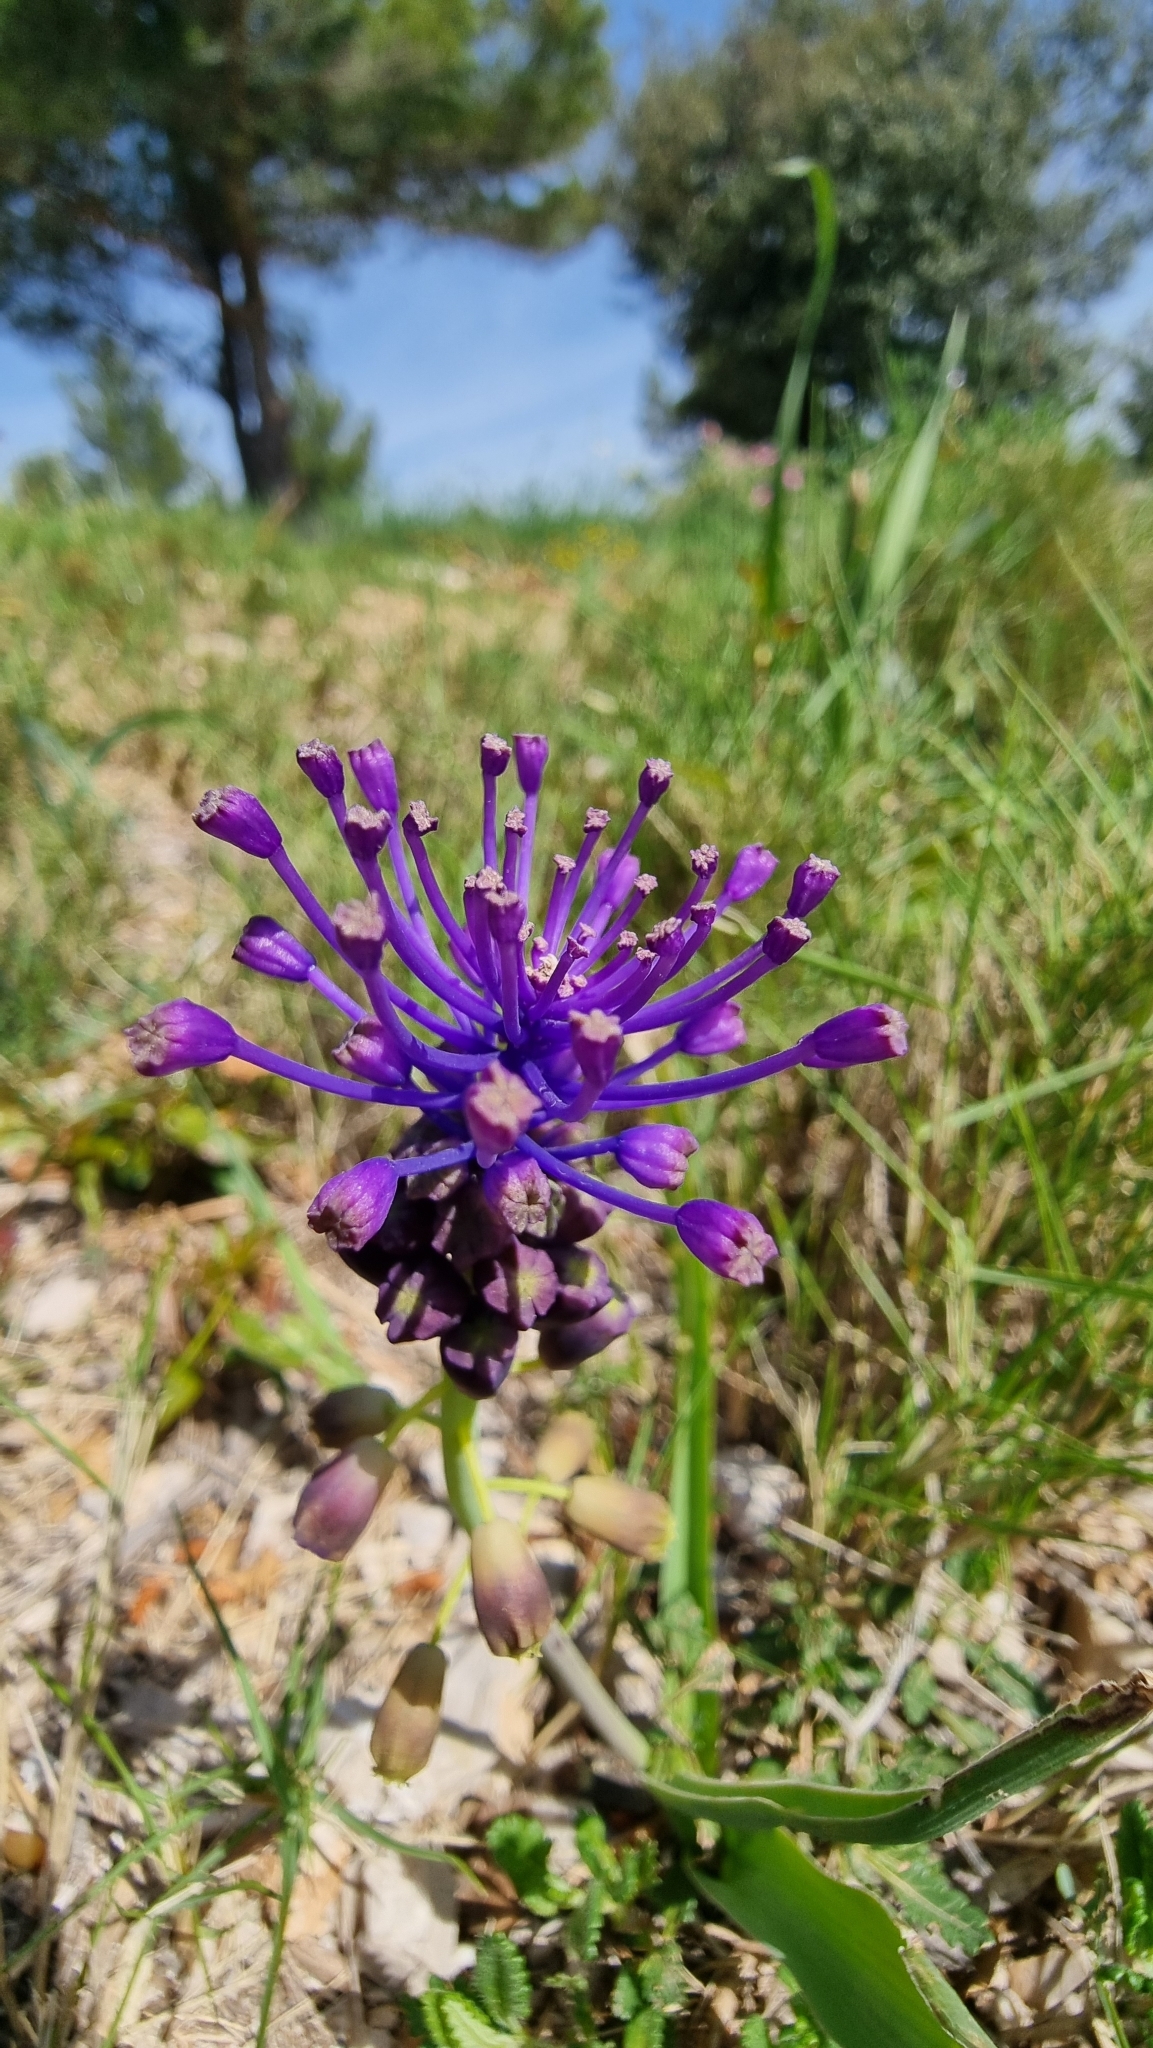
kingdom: Plantae
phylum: Tracheophyta
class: Liliopsida
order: Asparagales
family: Asparagaceae
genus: Muscari
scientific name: Muscari comosum
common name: Tassel hyacinth
